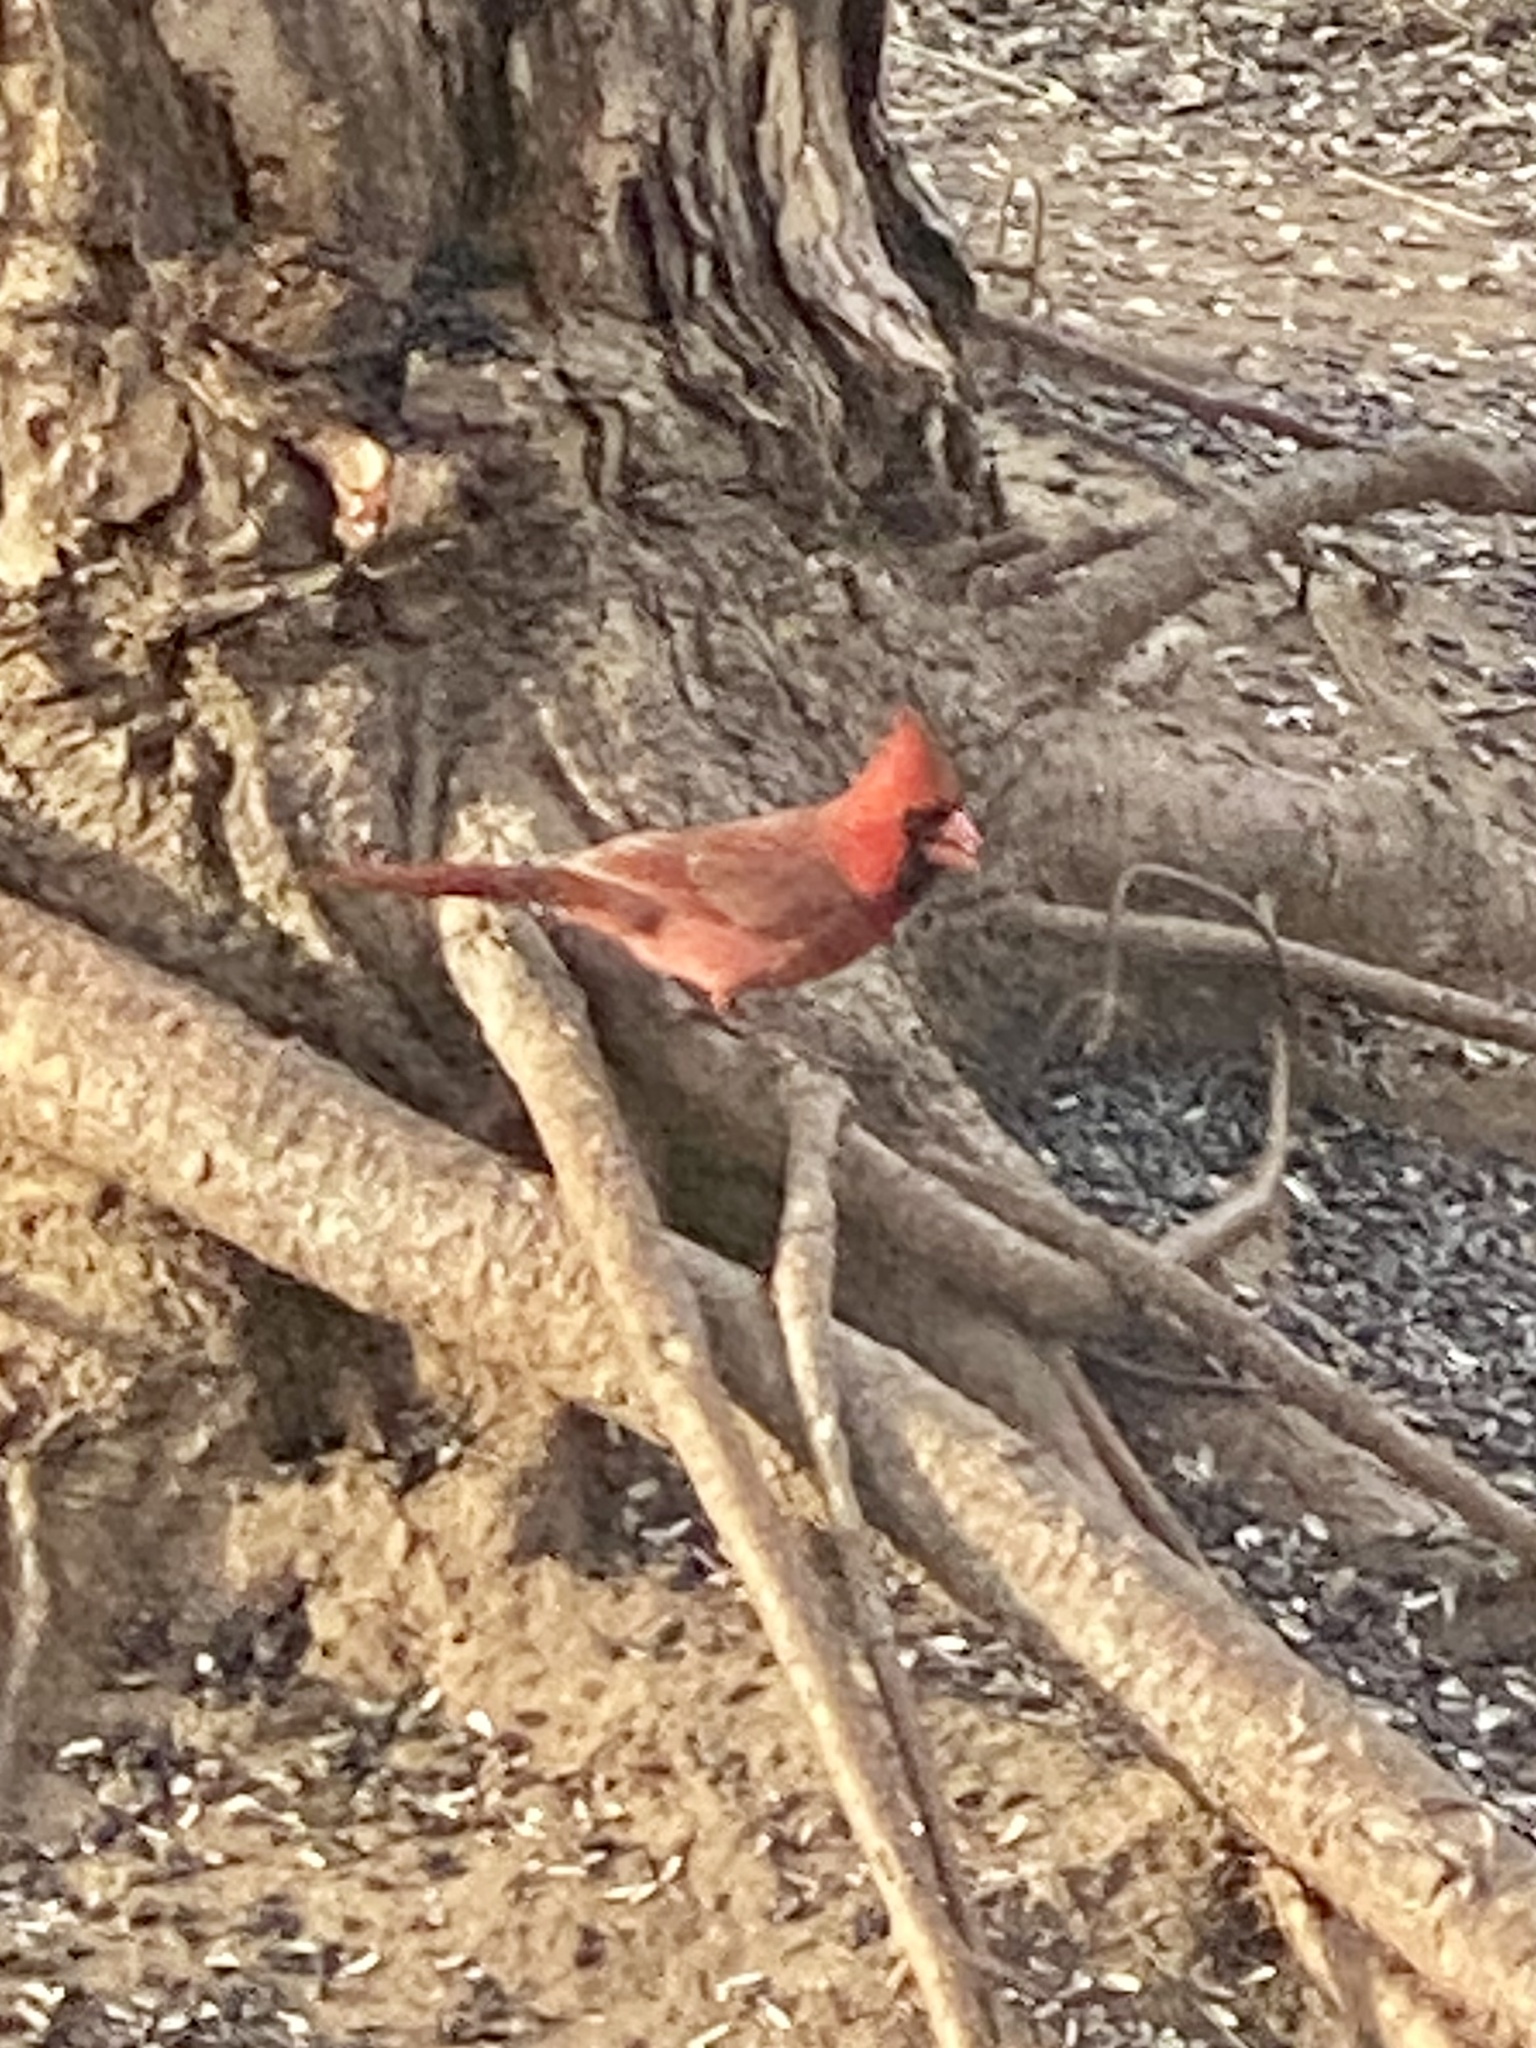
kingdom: Animalia
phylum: Chordata
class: Aves
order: Passeriformes
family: Cardinalidae
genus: Cardinalis
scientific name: Cardinalis cardinalis
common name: Northern cardinal
